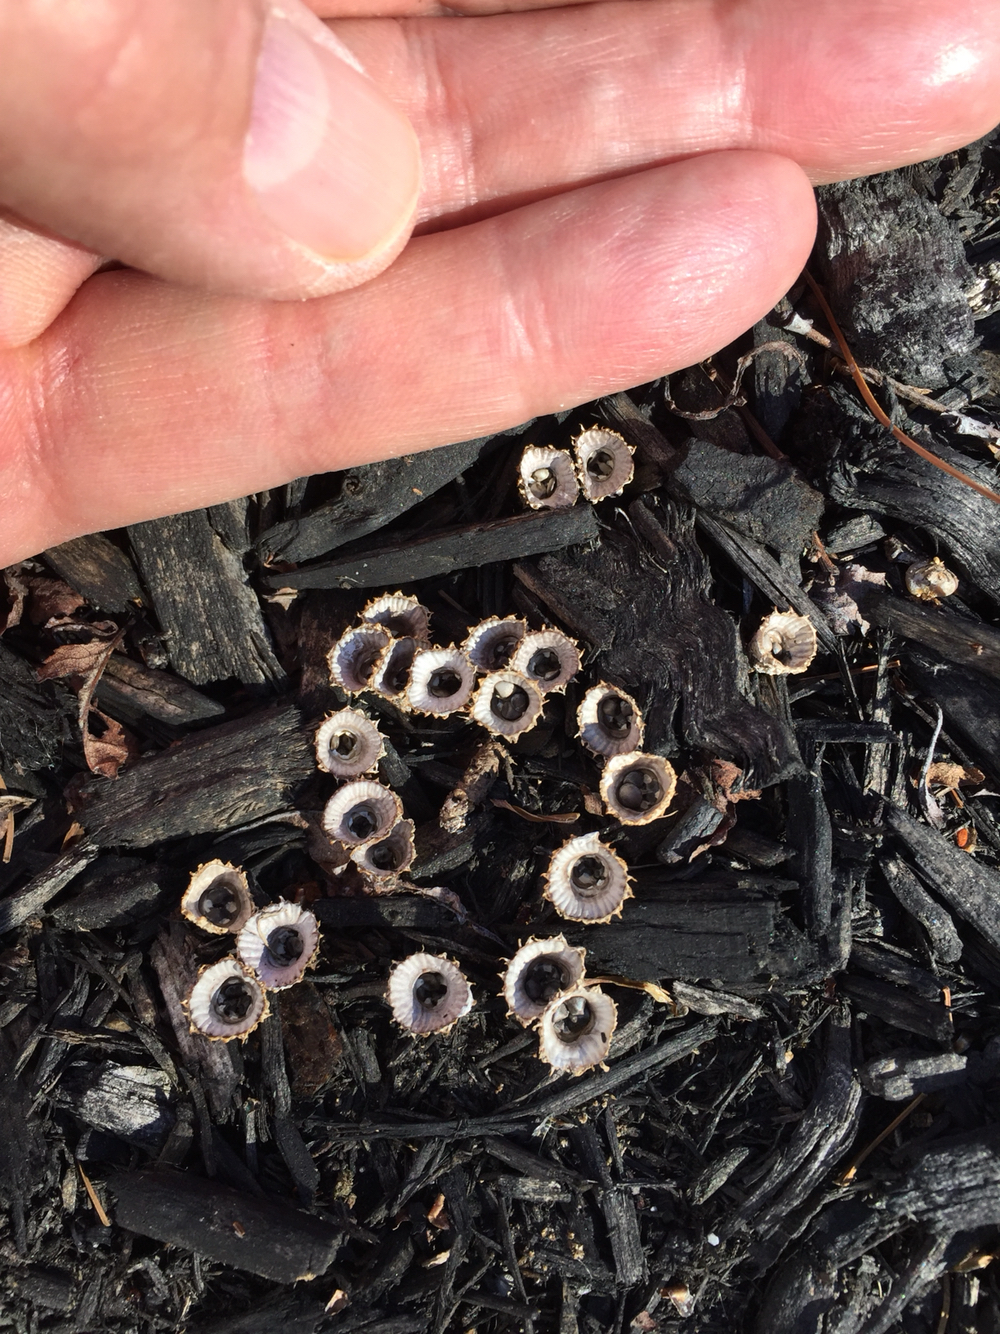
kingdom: Fungi
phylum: Basidiomycota
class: Agaricomycetes
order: Agaricales
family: Agaricaceae
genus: Cyathus
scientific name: Cyathus striatus
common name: Fluted bird's nest
